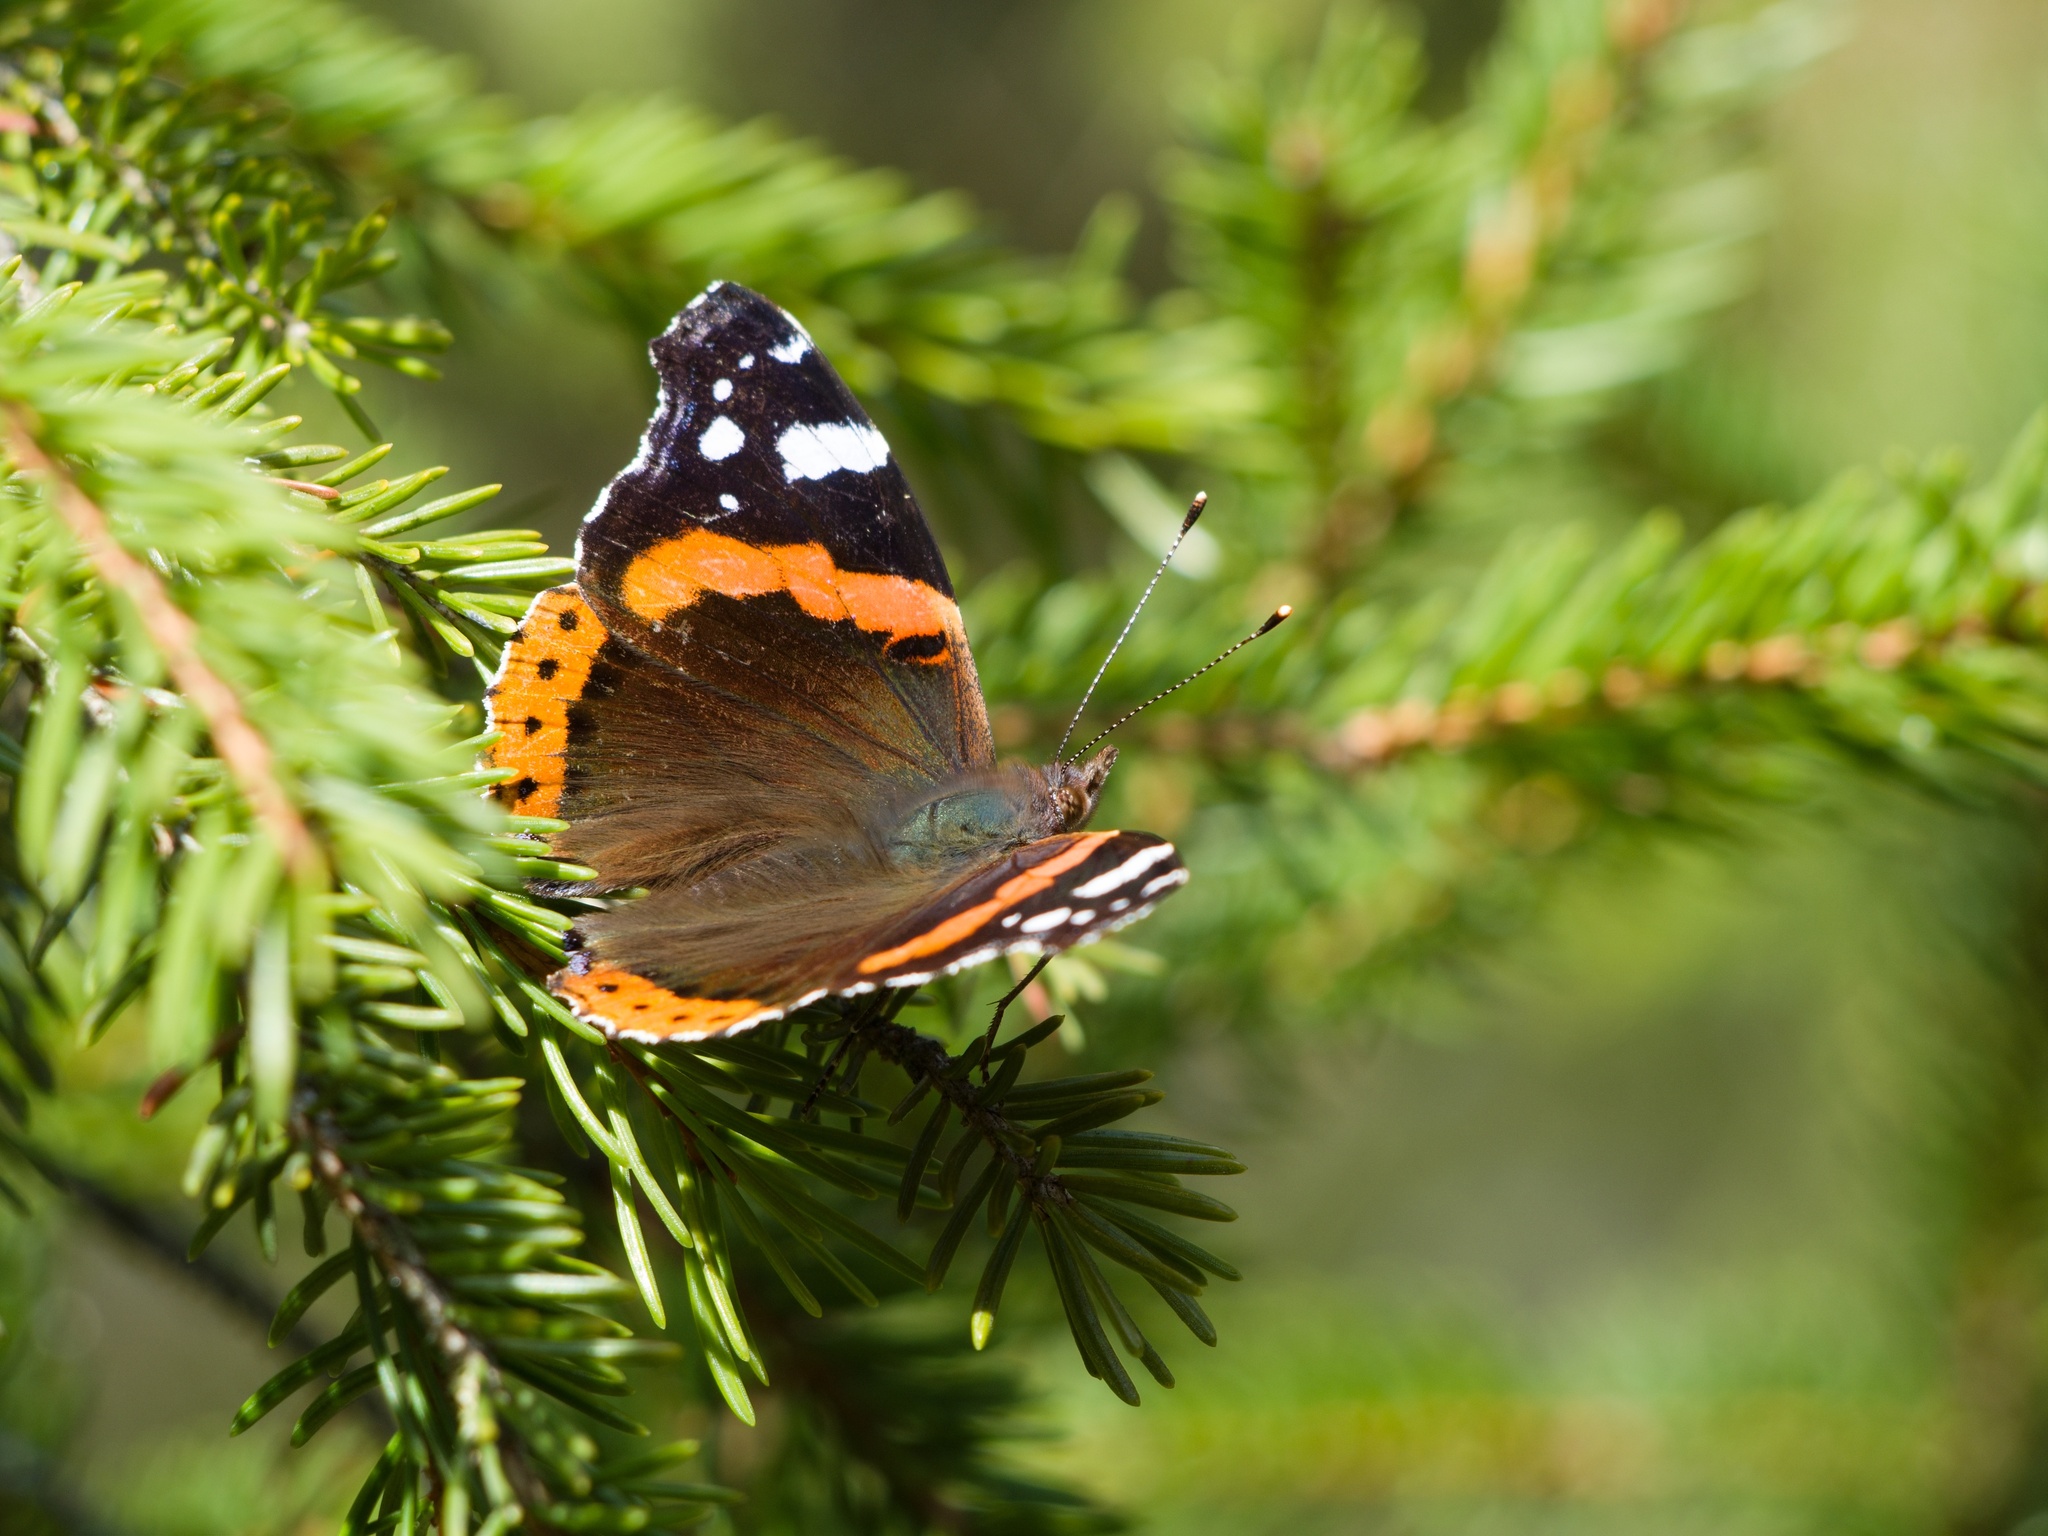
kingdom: Animalia
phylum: Arthropoda
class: Insecta
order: Lepidoptera
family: Nymphalidae
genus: Vanessa
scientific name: Vanessa atalanta
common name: Red admiral
